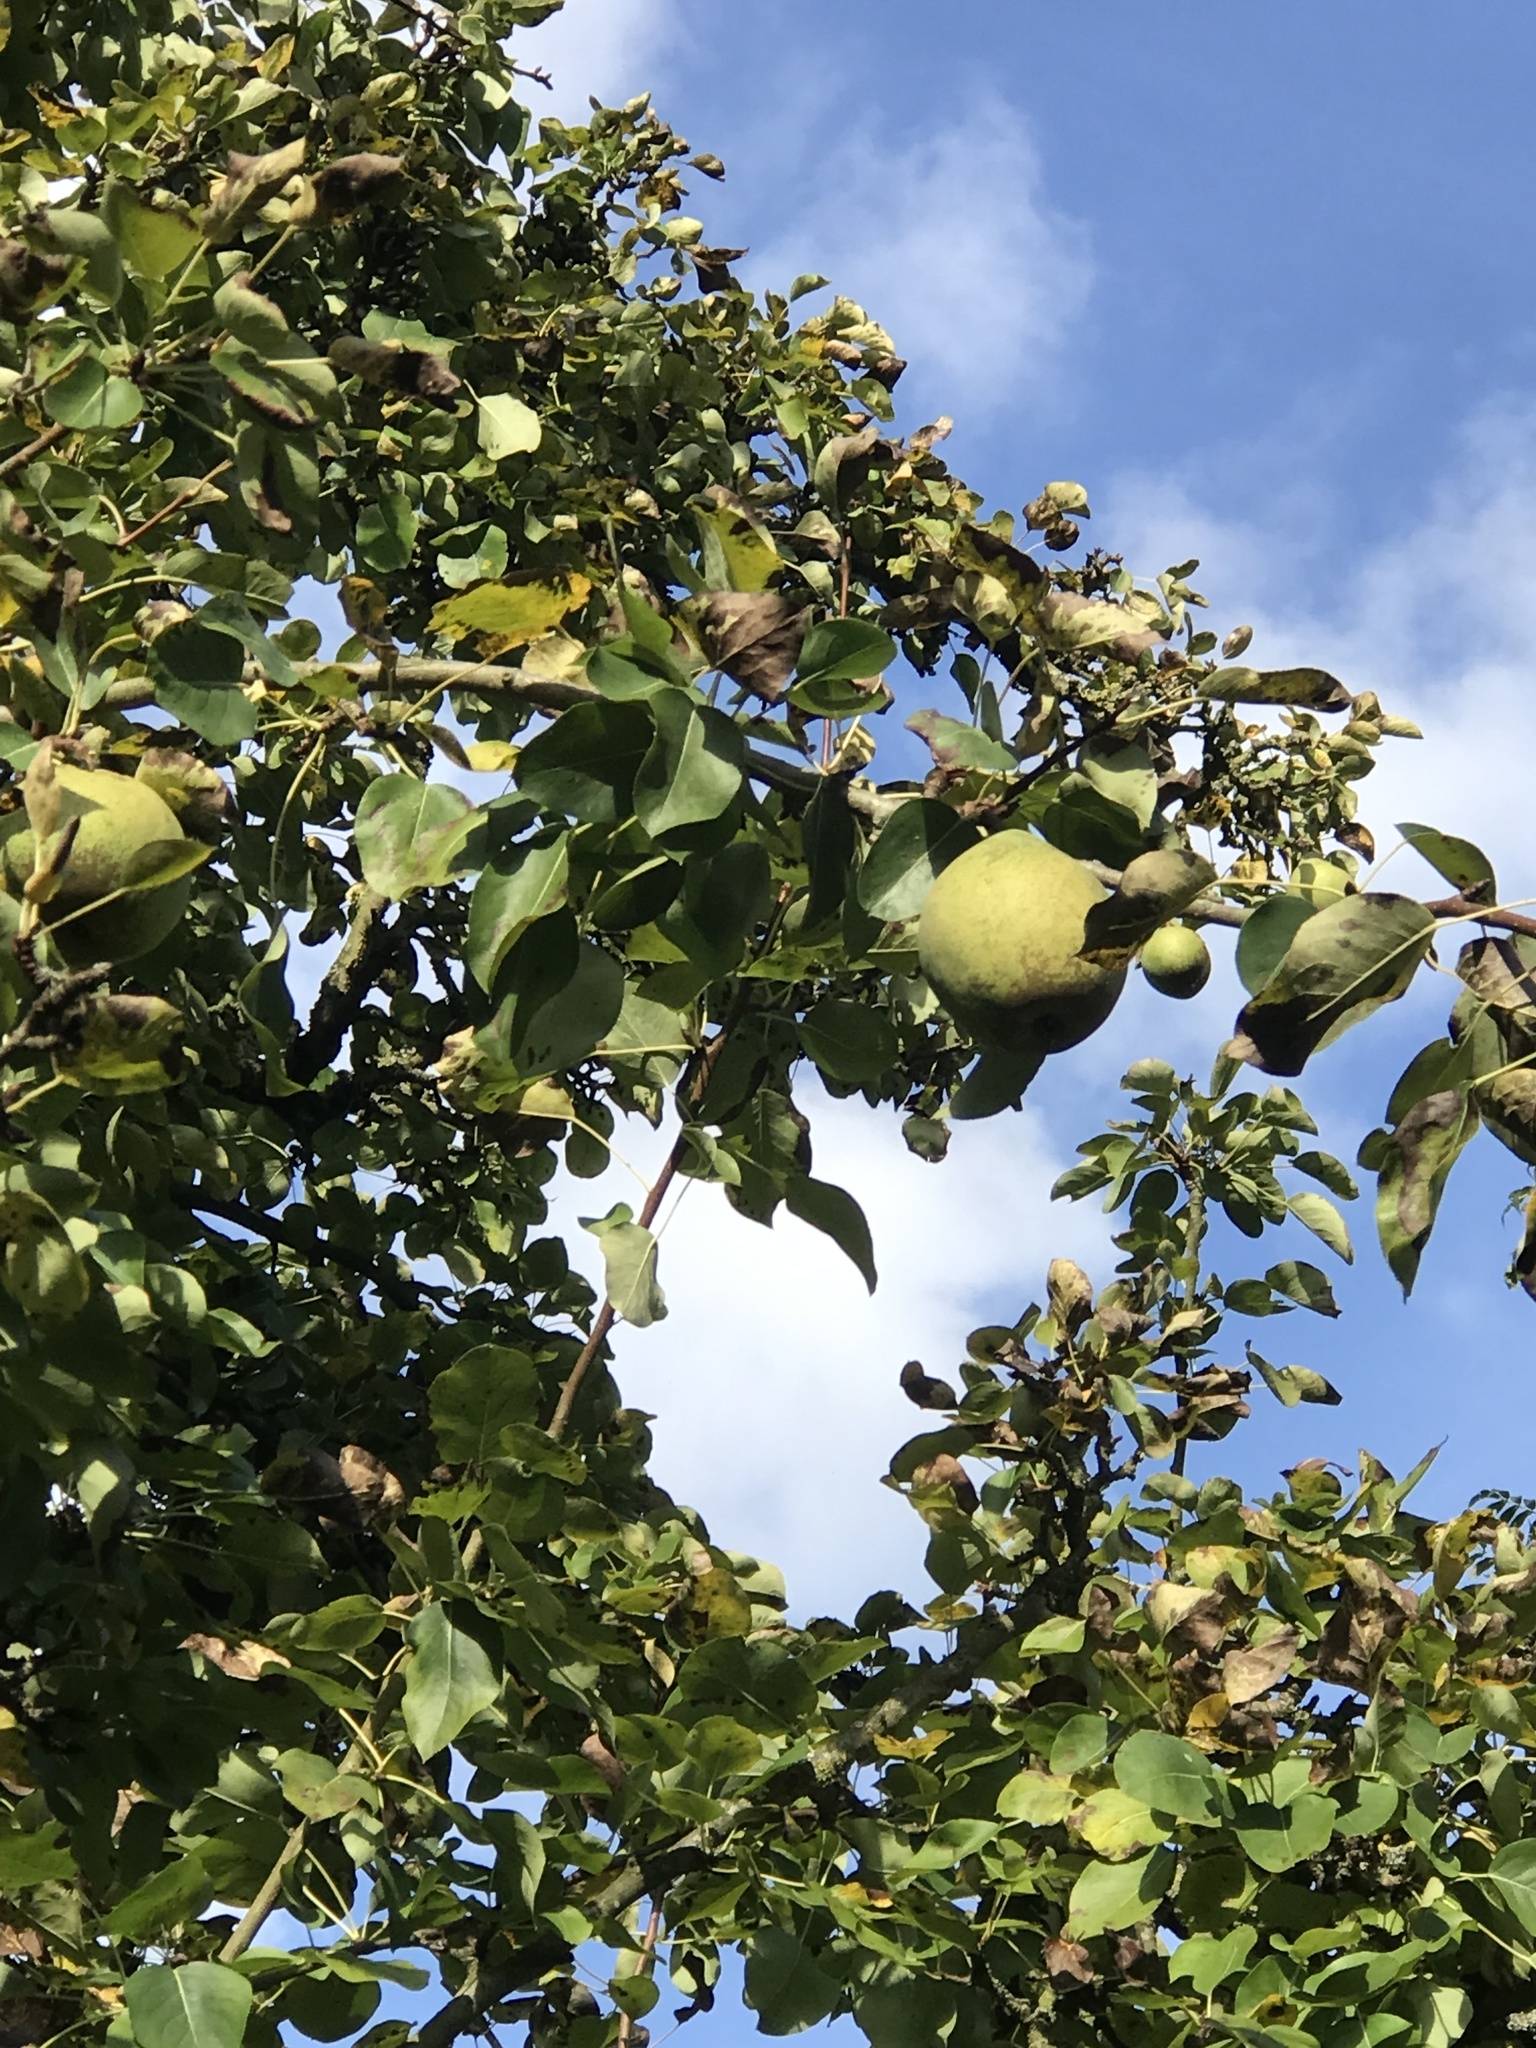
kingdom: Plantae
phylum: Tracheophyta
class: Magnoliopsida
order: Rosales
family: Rosaceae
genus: Pyrus
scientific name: Pyrus communis
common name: Pear
